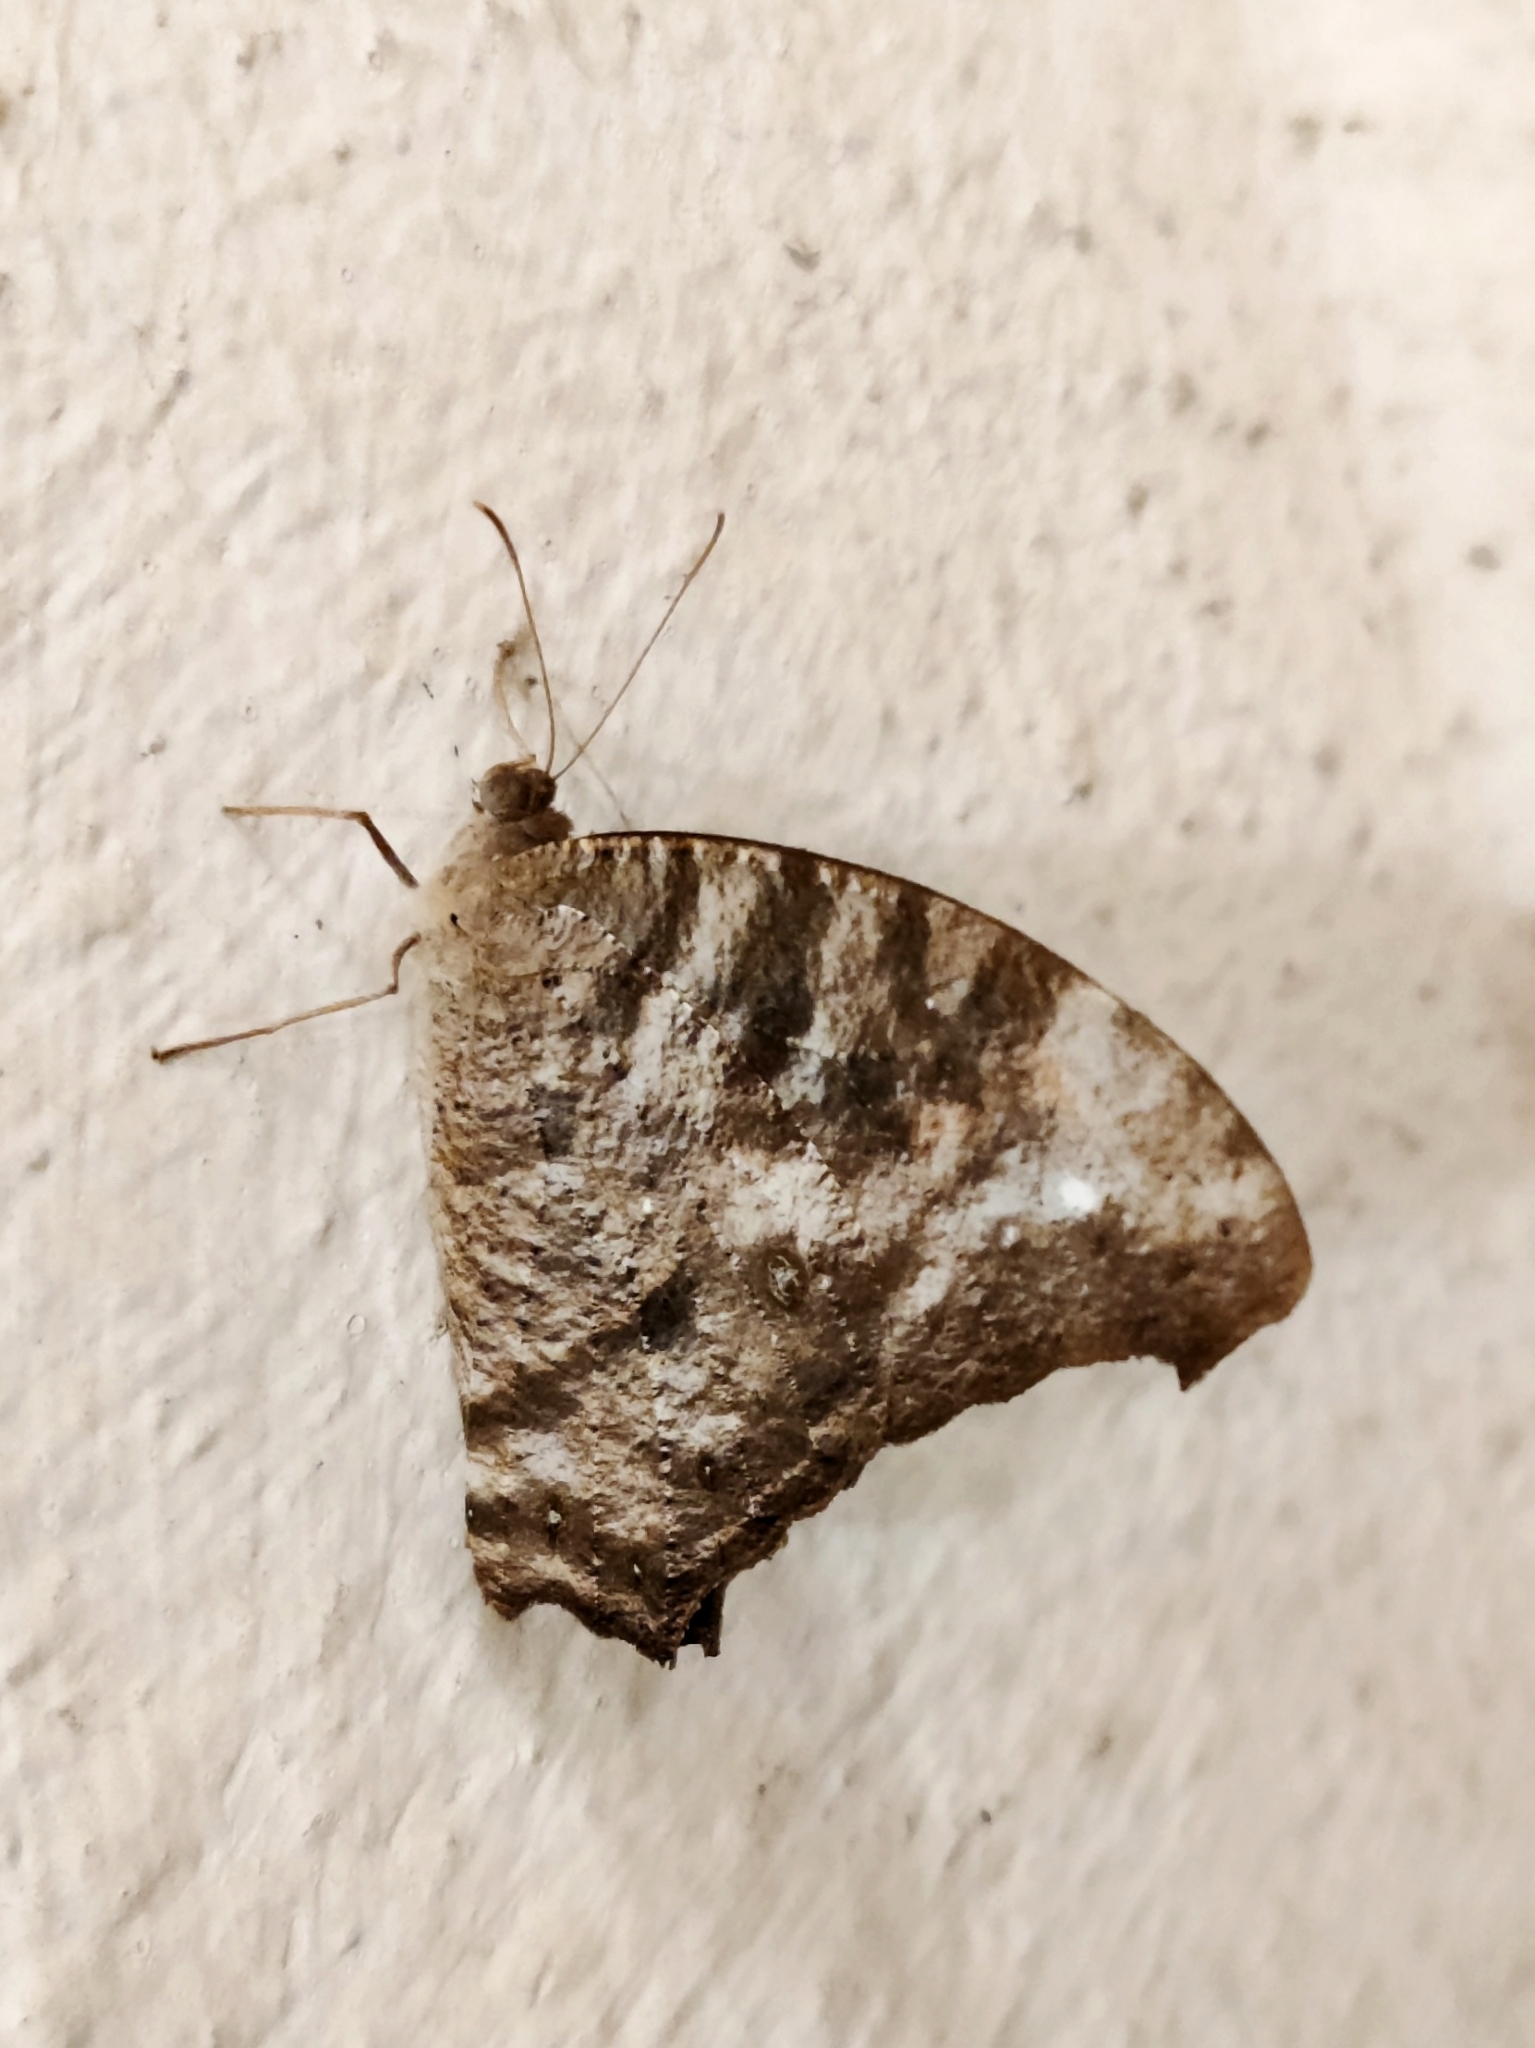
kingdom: Animalia
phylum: Arthropoda
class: Insecta
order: Lepidoptera
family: Nymphalidae
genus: Melanitis
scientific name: Melanitis leda
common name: Twilight brown
